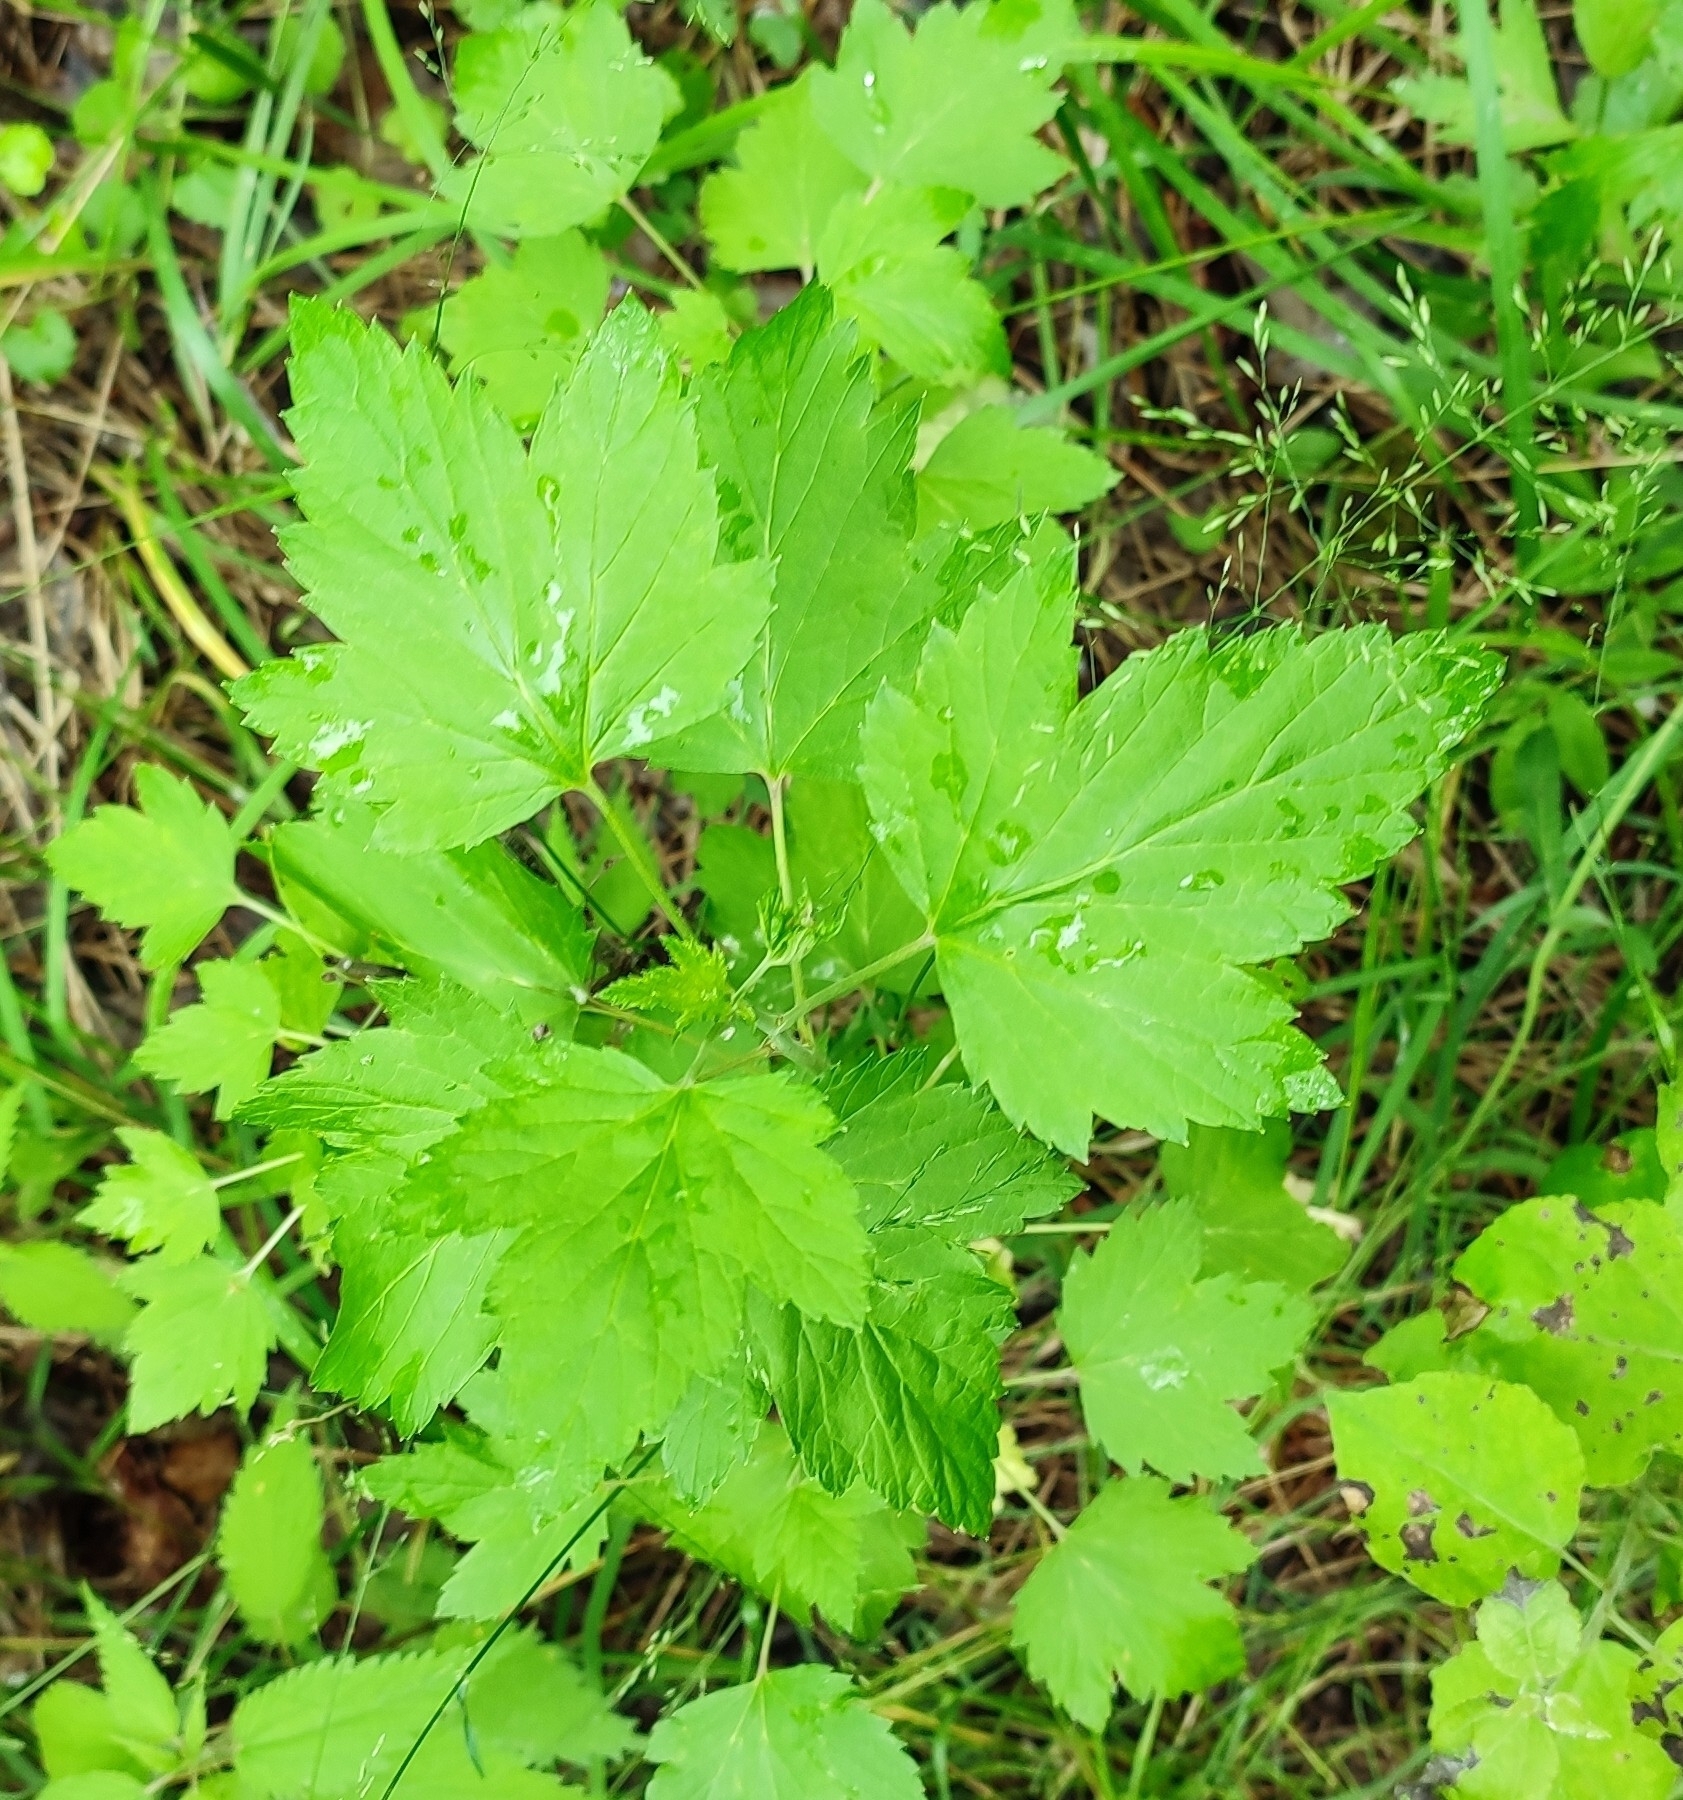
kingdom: Plantae
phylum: Tracheophyta
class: Magnoliopsida
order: Saxifragales
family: Grossulariaceae
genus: Ribes
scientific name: Ribes nigrum
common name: Black currant
